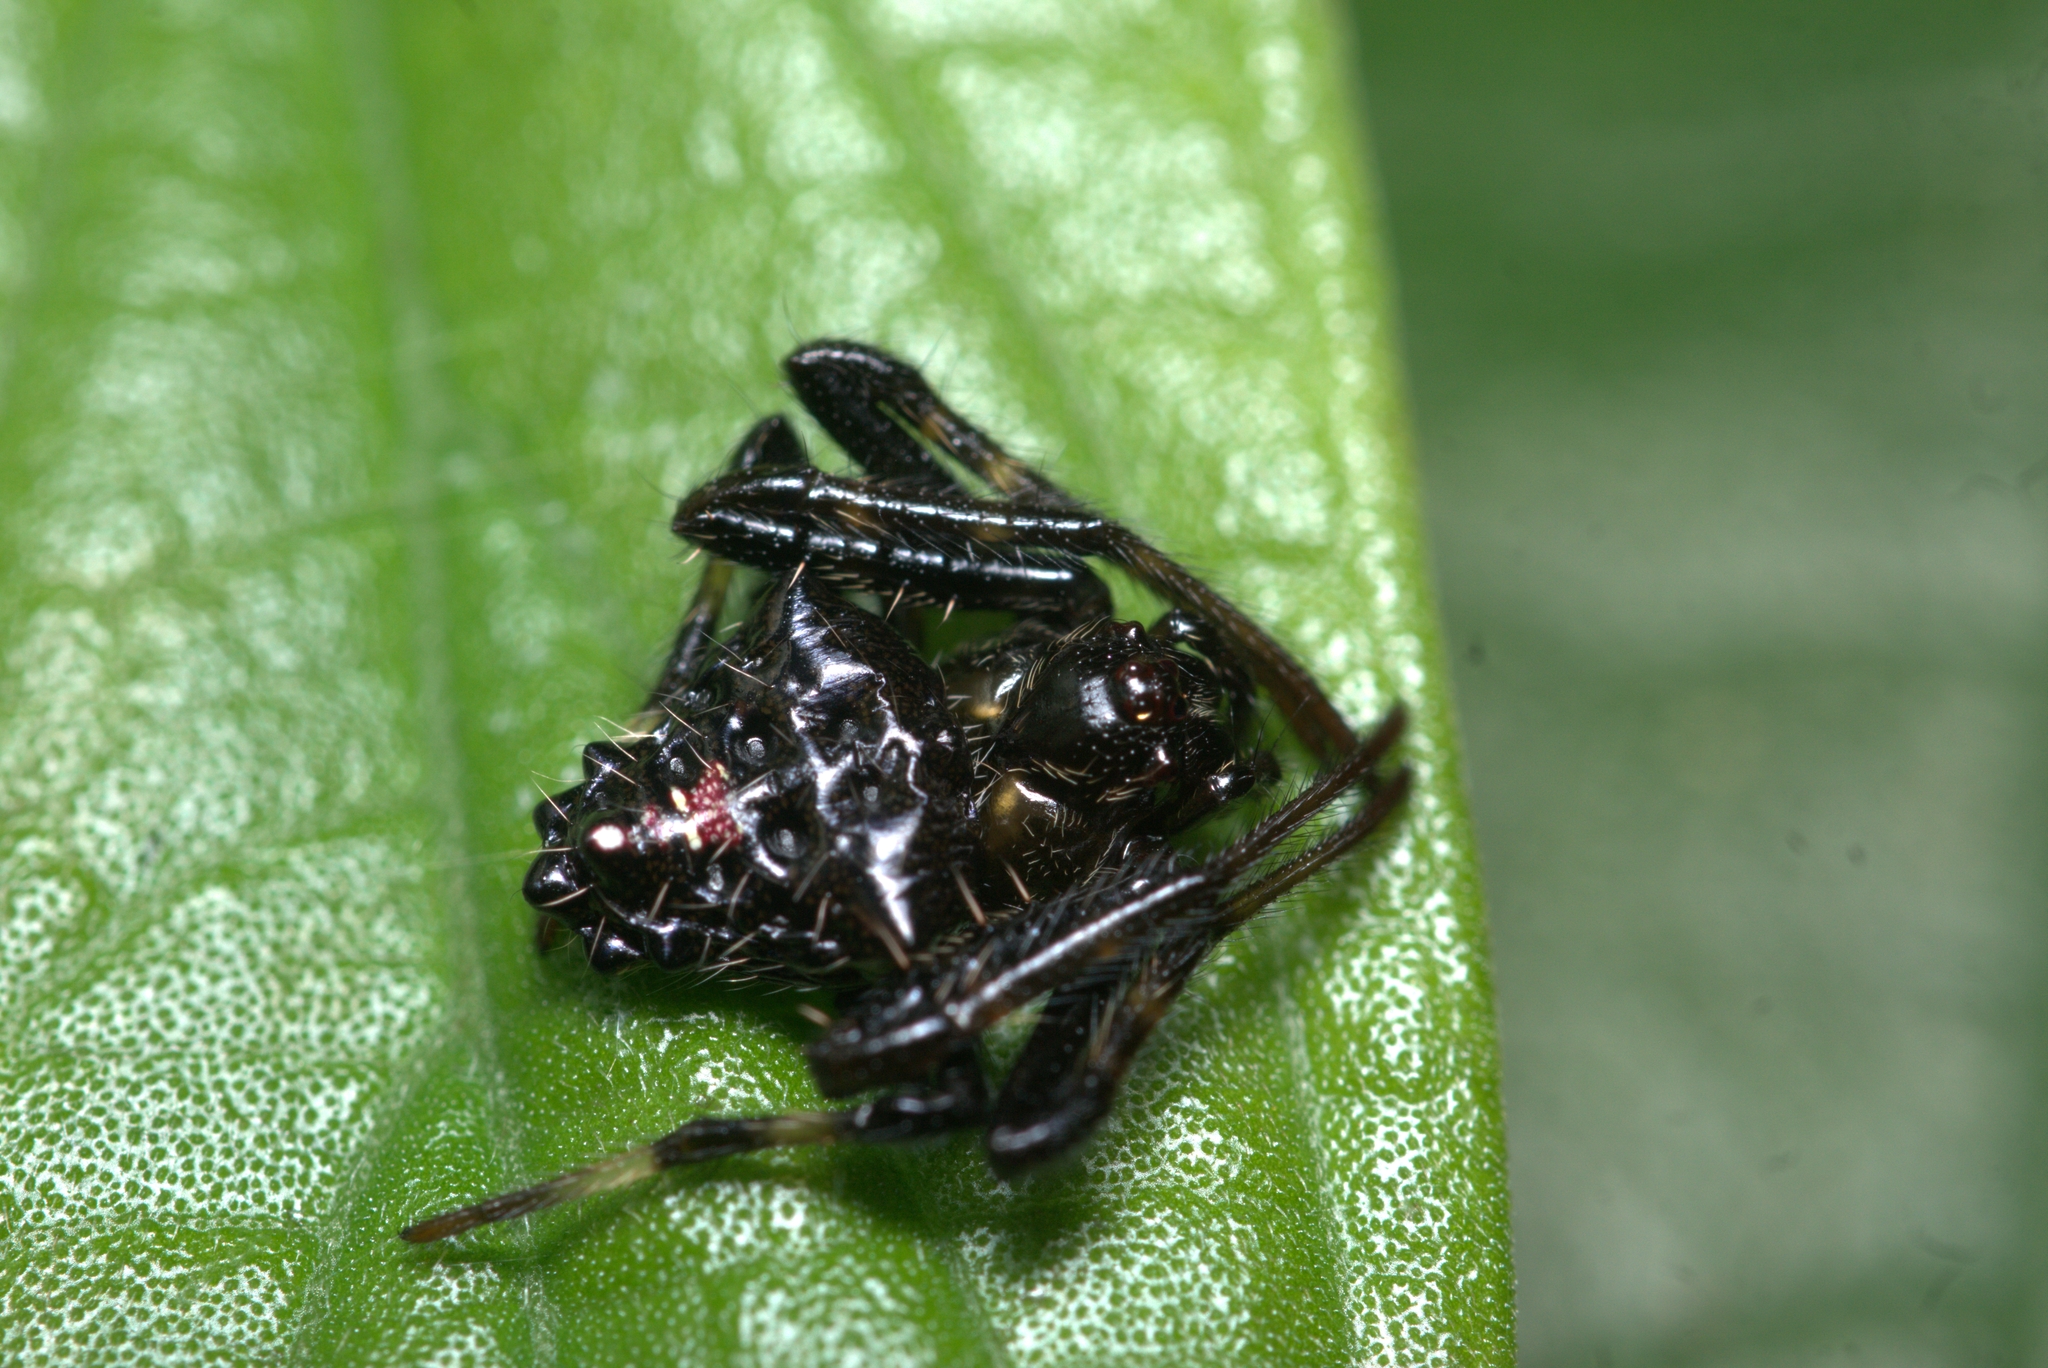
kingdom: Animalia
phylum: Arthropoda
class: Arachnida
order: Araneae
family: Araneidae
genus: Verrucosa
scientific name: Verrucosa meridionalis
